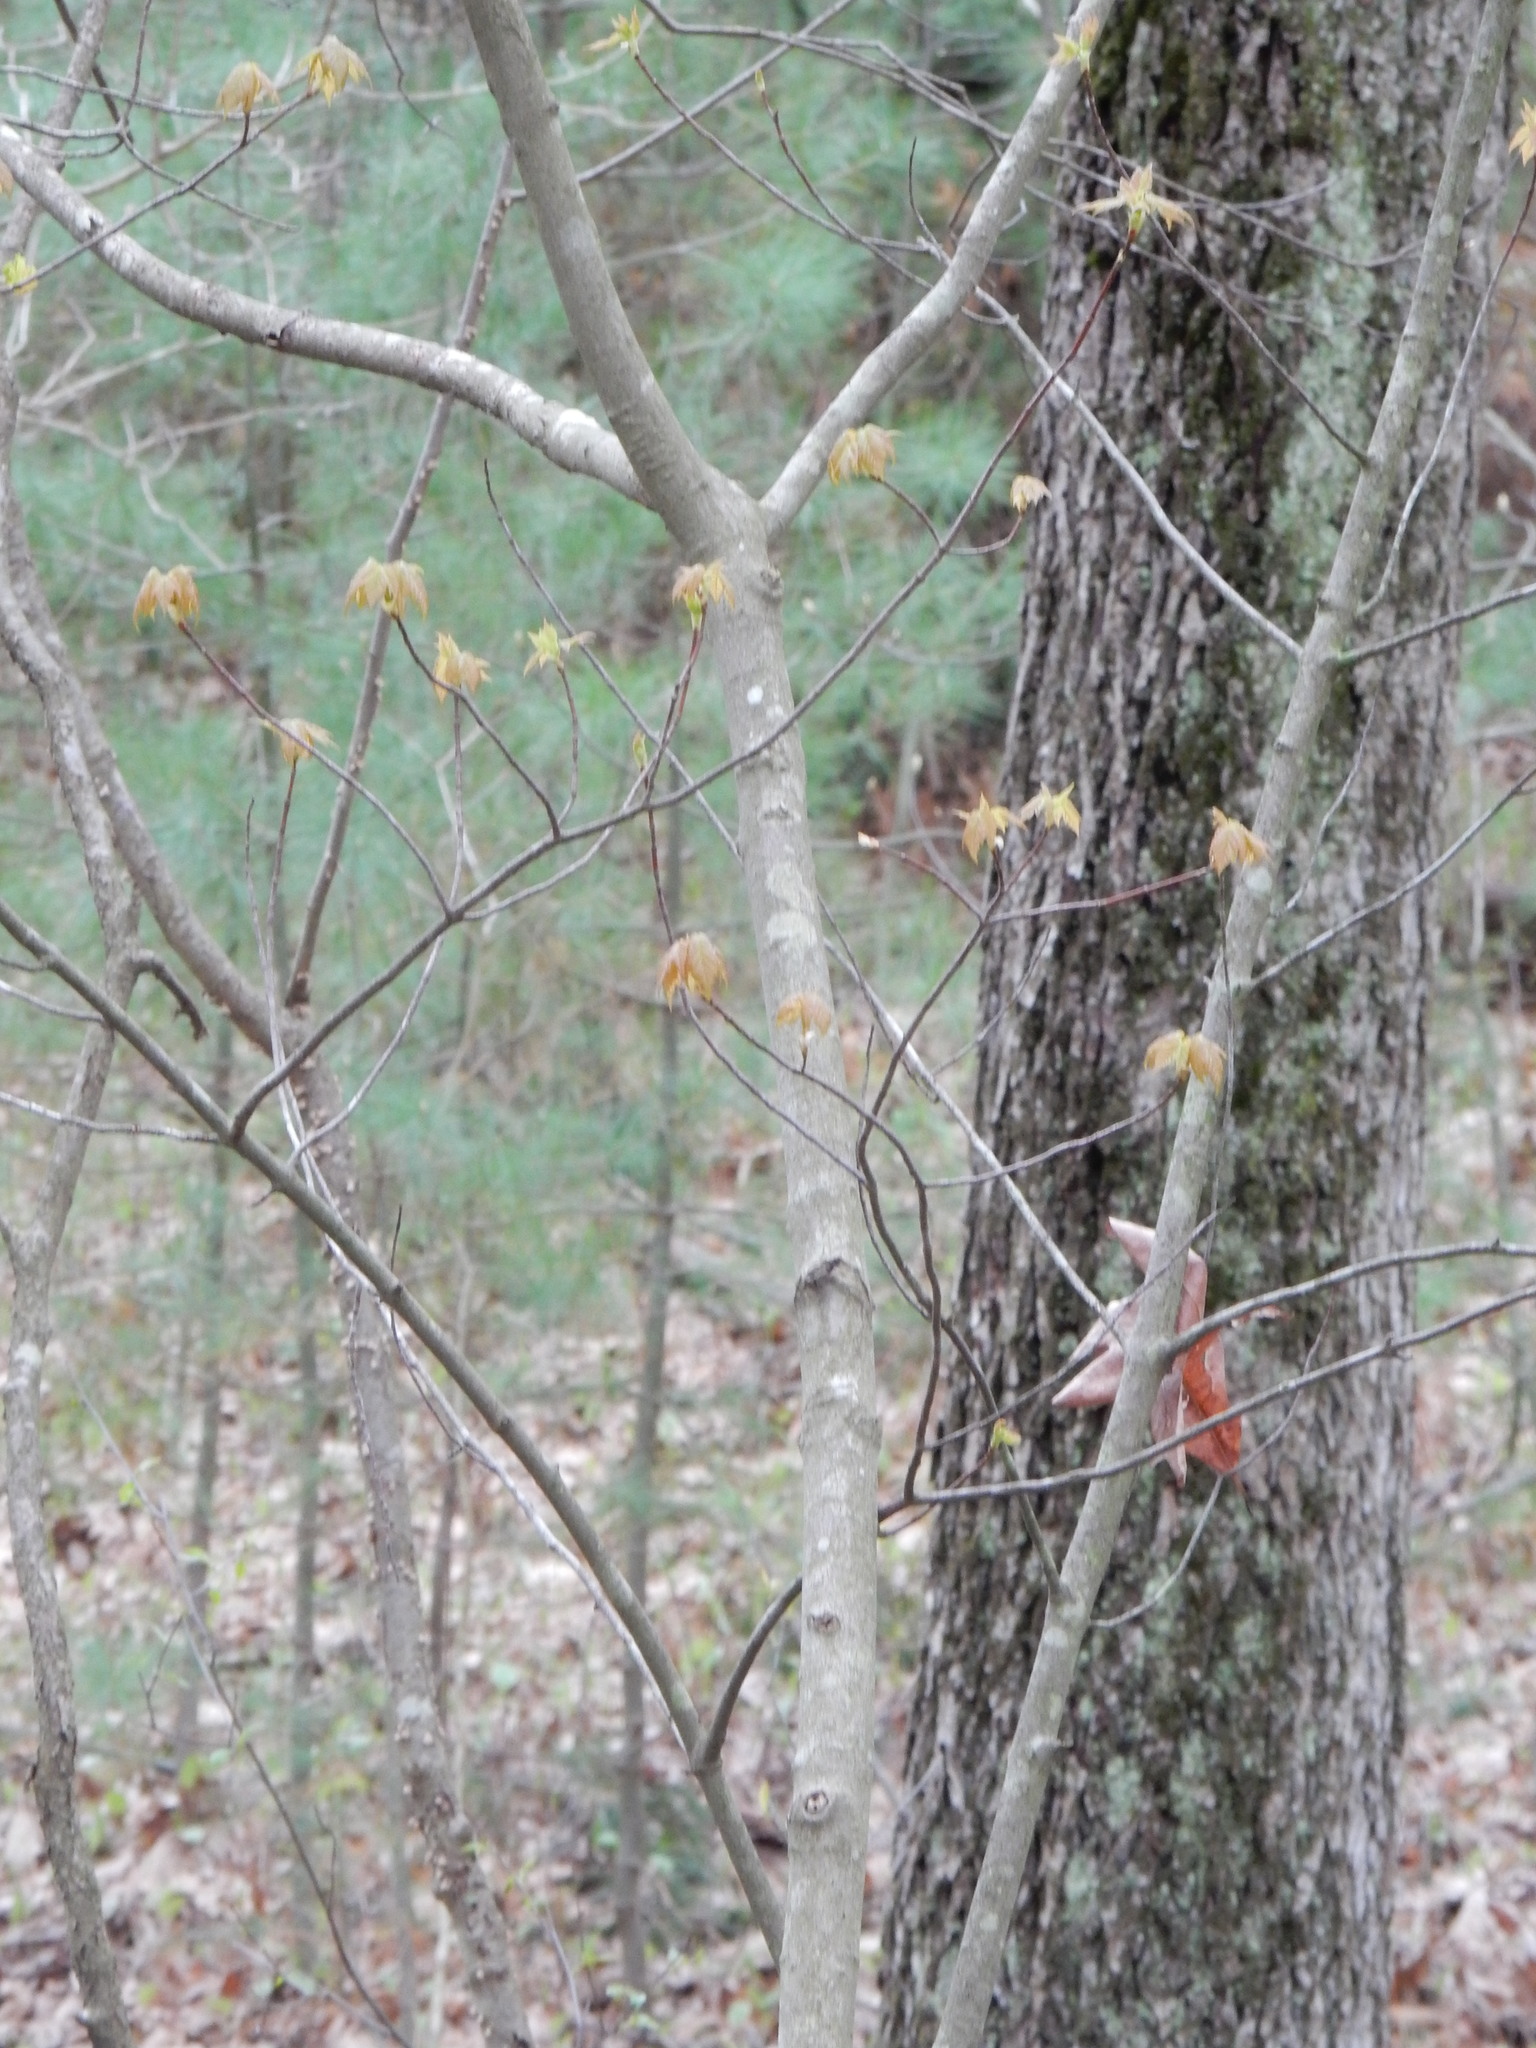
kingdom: Plantae
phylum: Tracheophyta
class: Magnoliopsida
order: Sapindales
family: Sapindaceae
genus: Acer
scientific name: Acer rubrum
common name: Red maple
